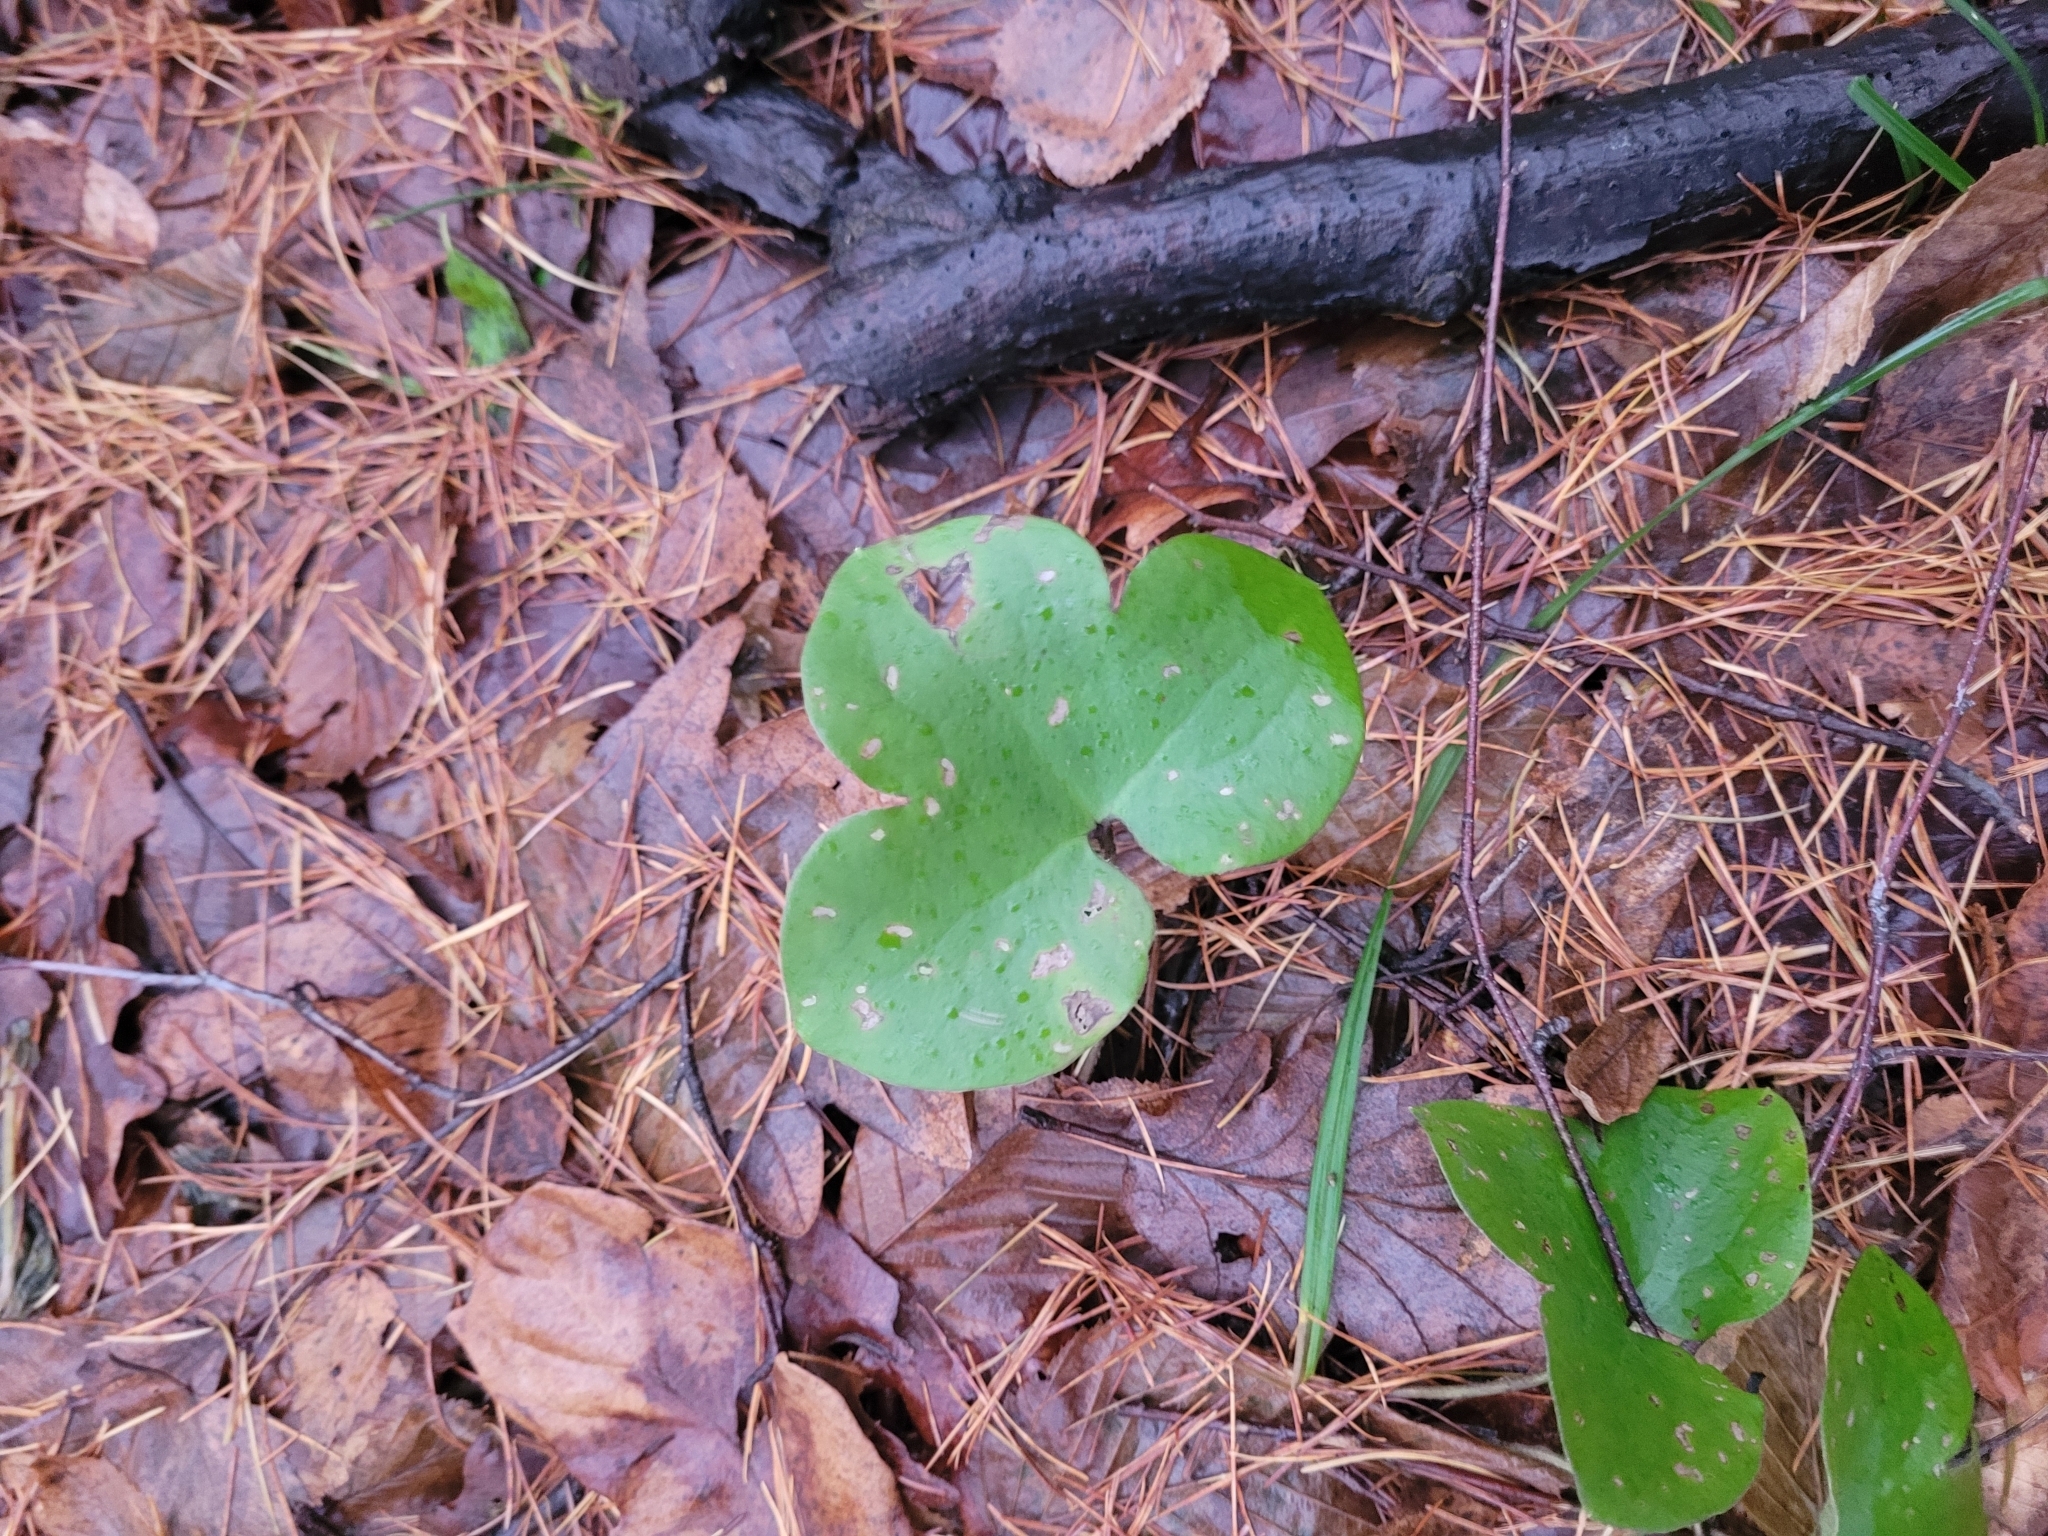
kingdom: Plantae
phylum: Tracheophyta
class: Magnoliopsida
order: Ranunculales
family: Ranunculaceae
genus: Hepatica
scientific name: Hepatica nobilis
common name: Liverleaf
